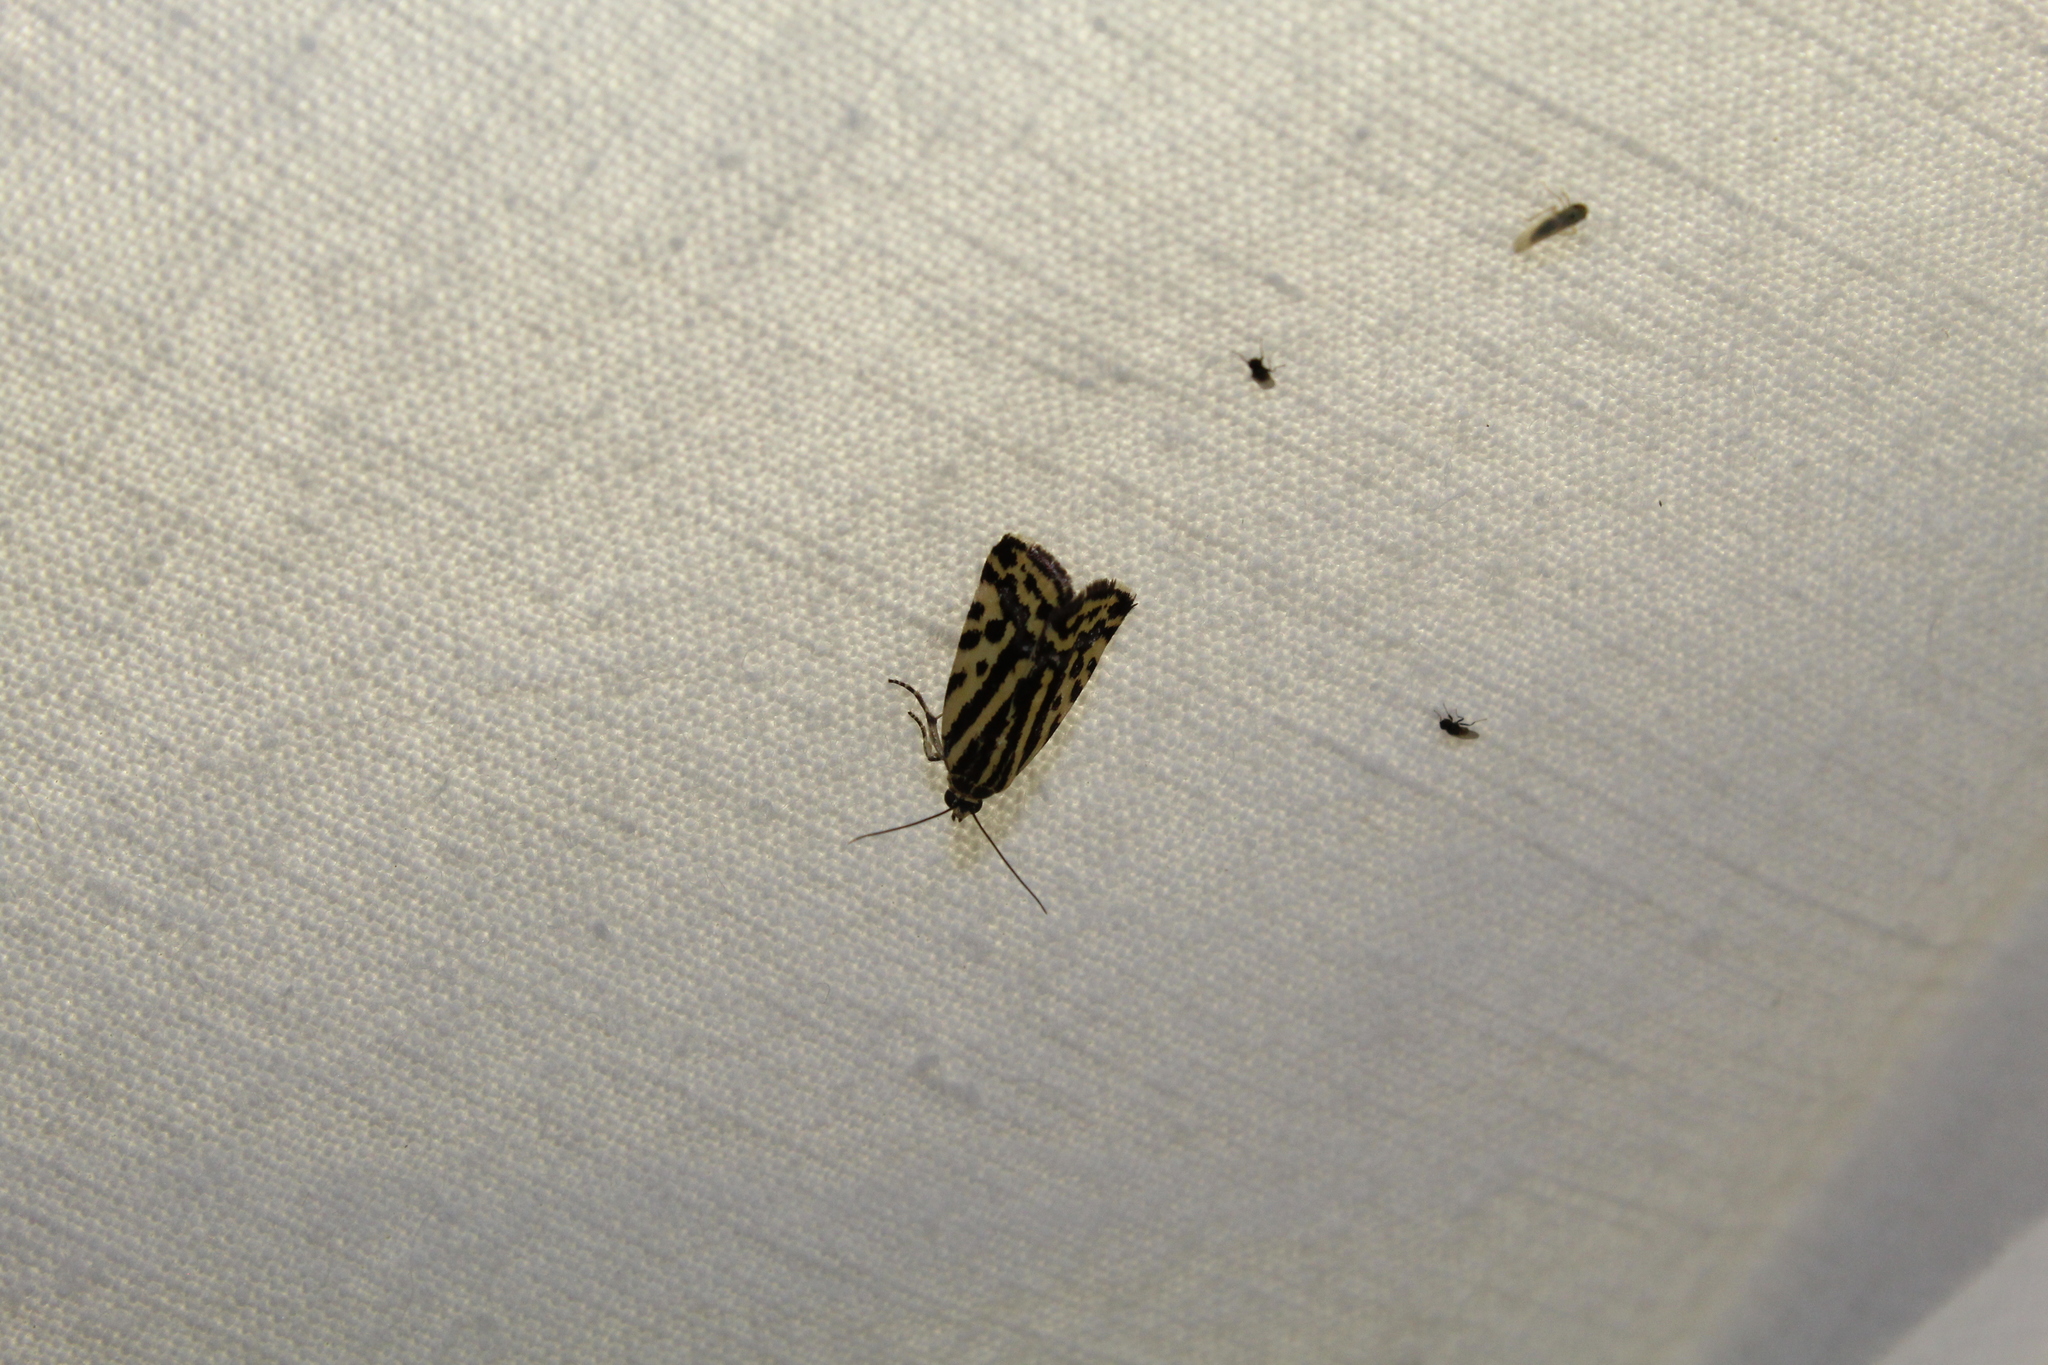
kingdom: Animalia
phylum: Arthropoda
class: Insecta
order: Lepidoptera
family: Noctuidae
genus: Acontia
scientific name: Acontia trabealis
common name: Spotted sulphur
